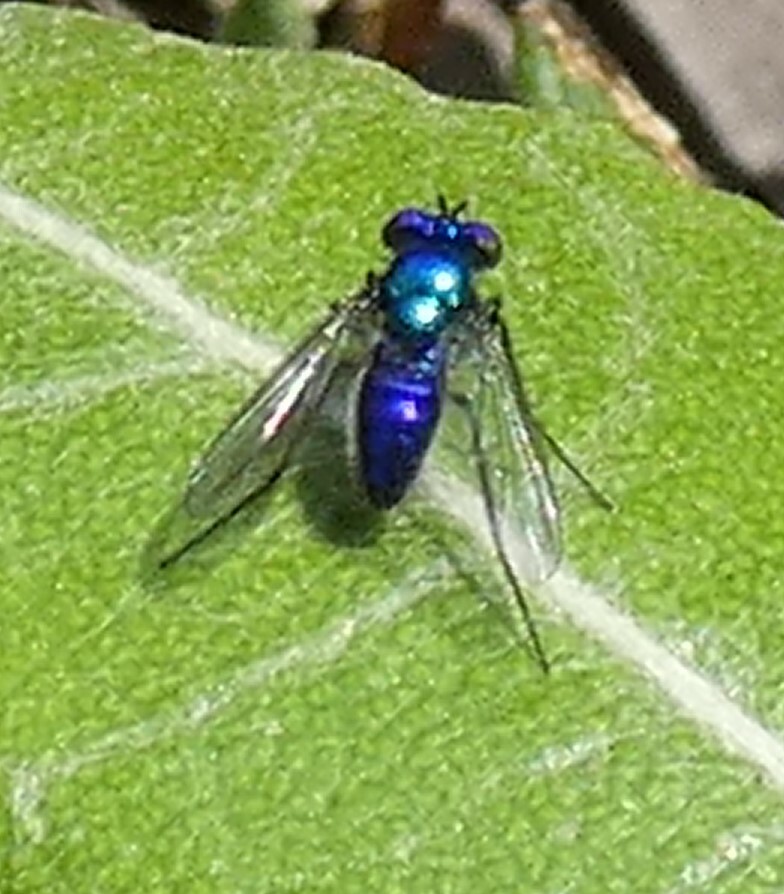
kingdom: Animalia
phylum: Arthropoda
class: Insecta
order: Diptera
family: Dolichopodidae
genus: Condylostylus
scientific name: Condylostylus mundus
